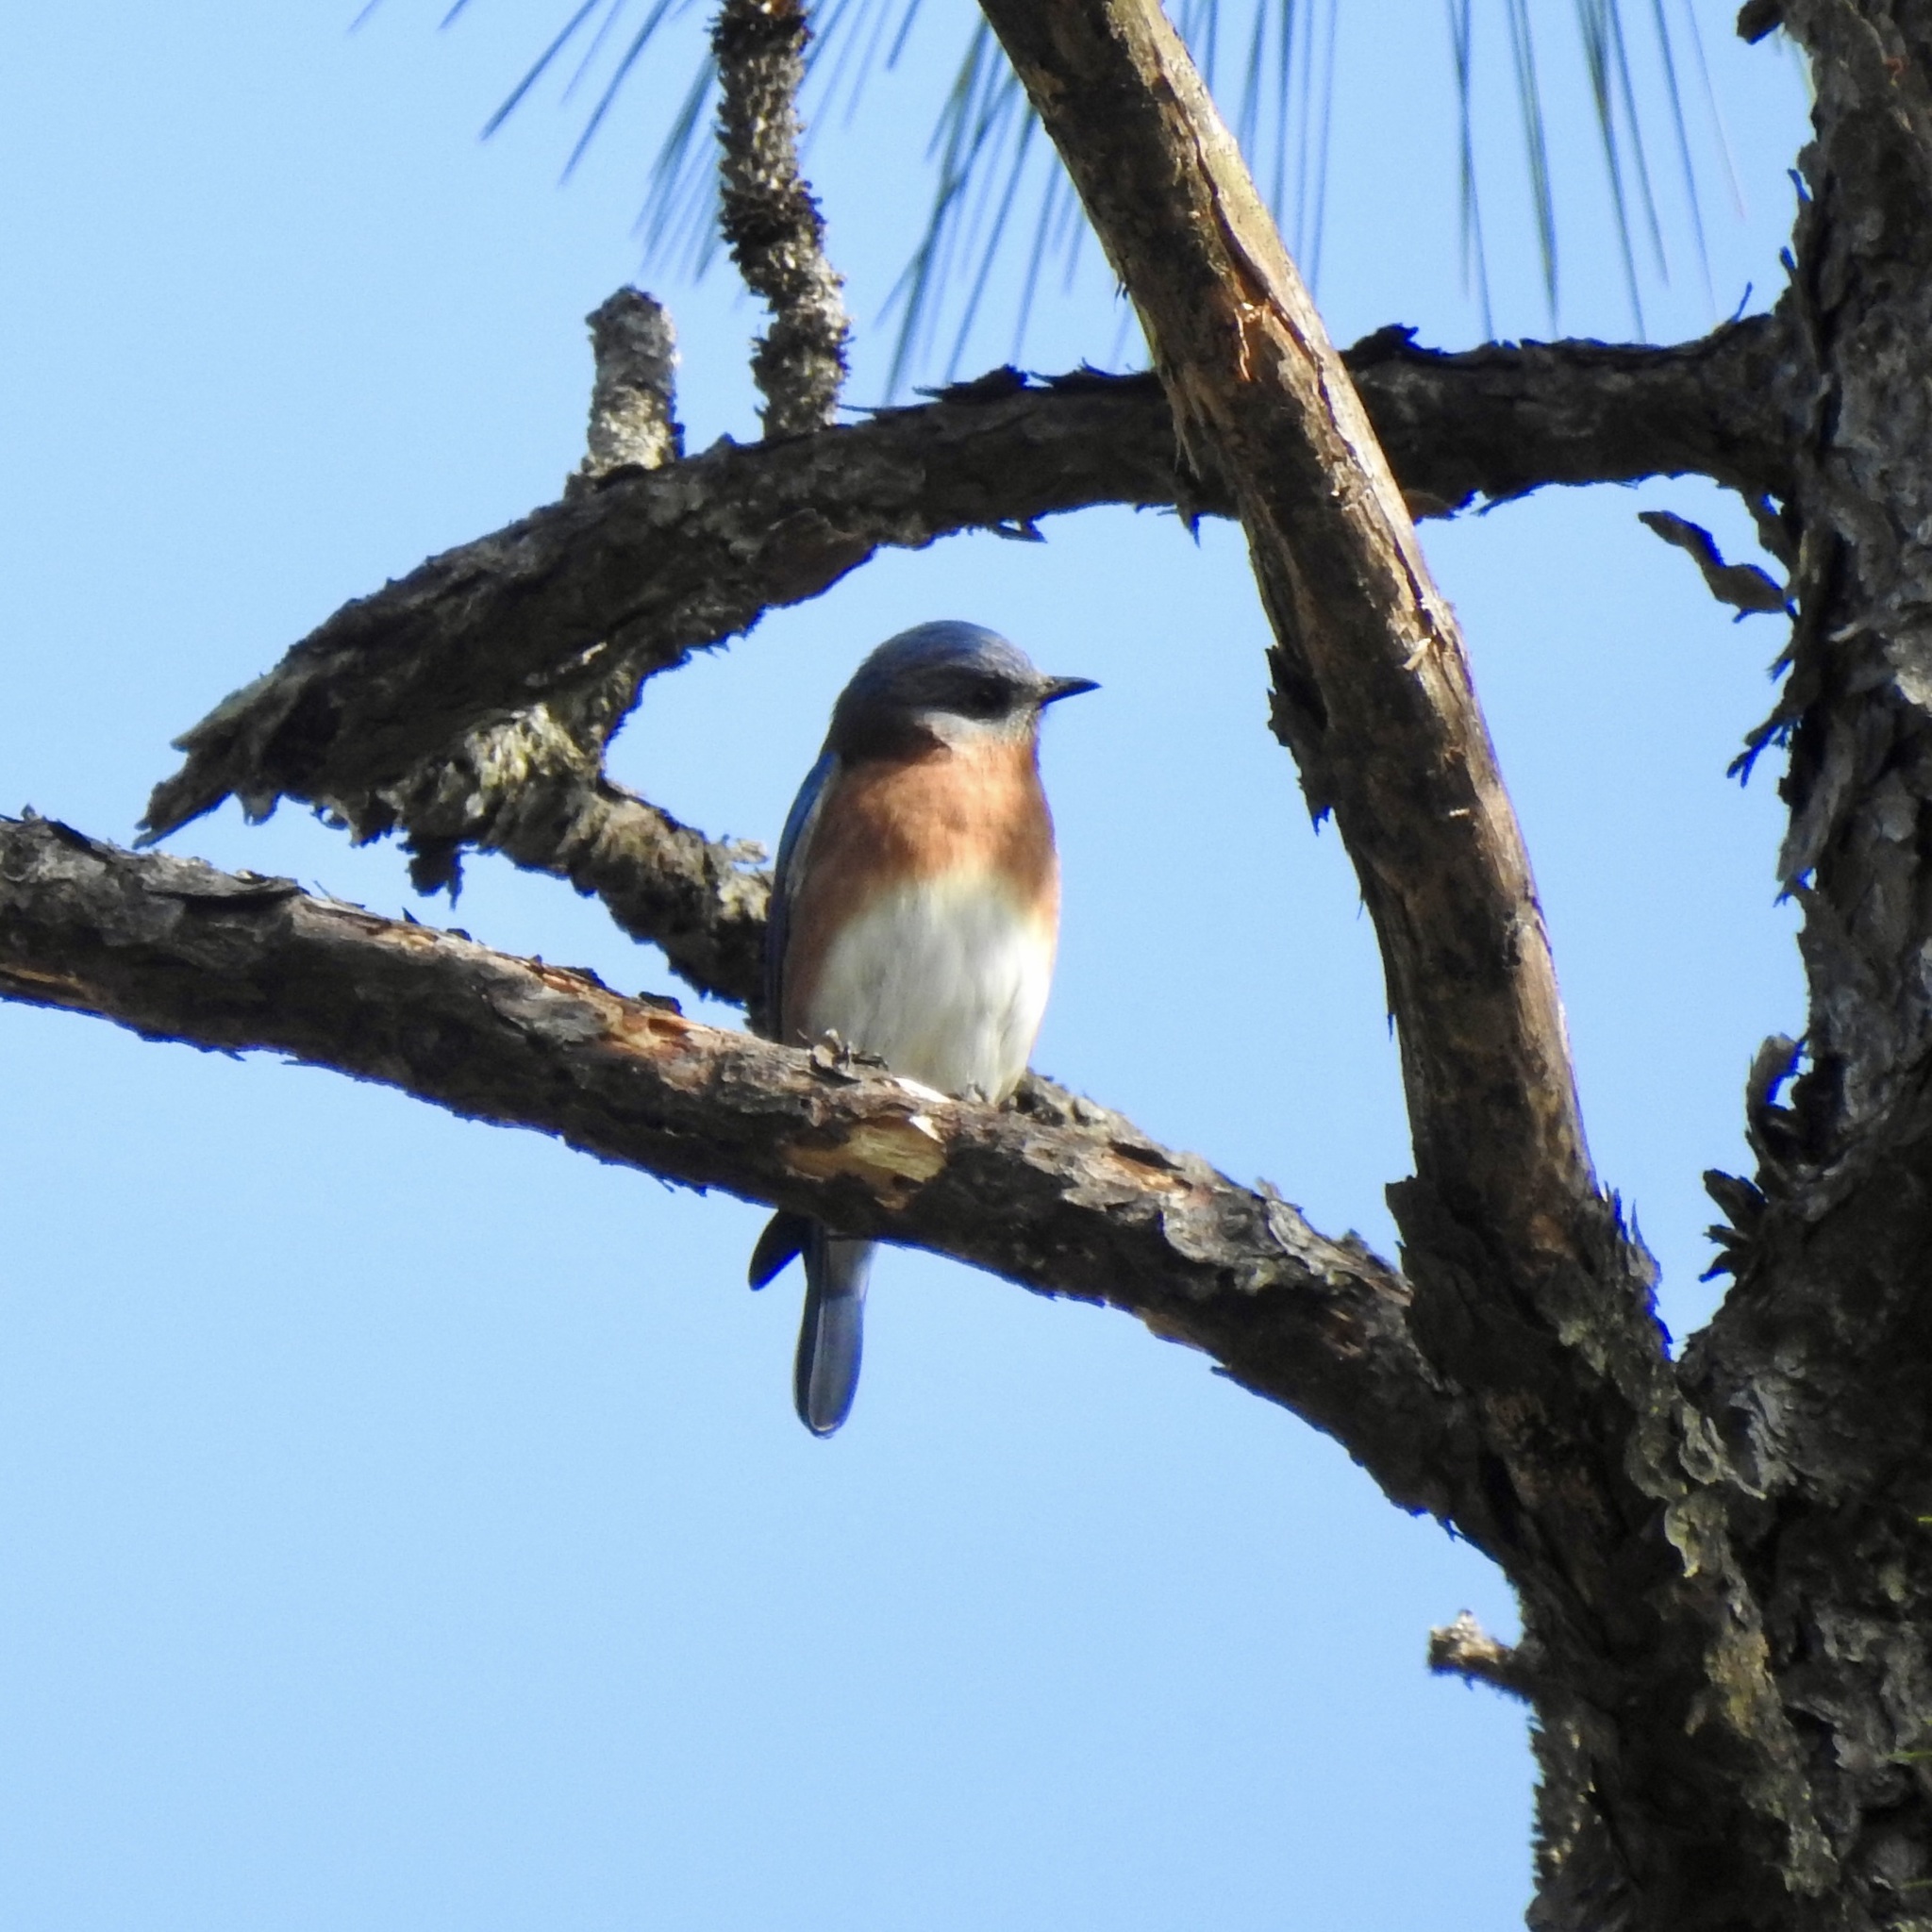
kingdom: Animalia
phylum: Chordata
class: Aves
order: Passeriformes
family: Turdidae
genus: Sialia
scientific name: Sialia sialis
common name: Eastern bluebird
